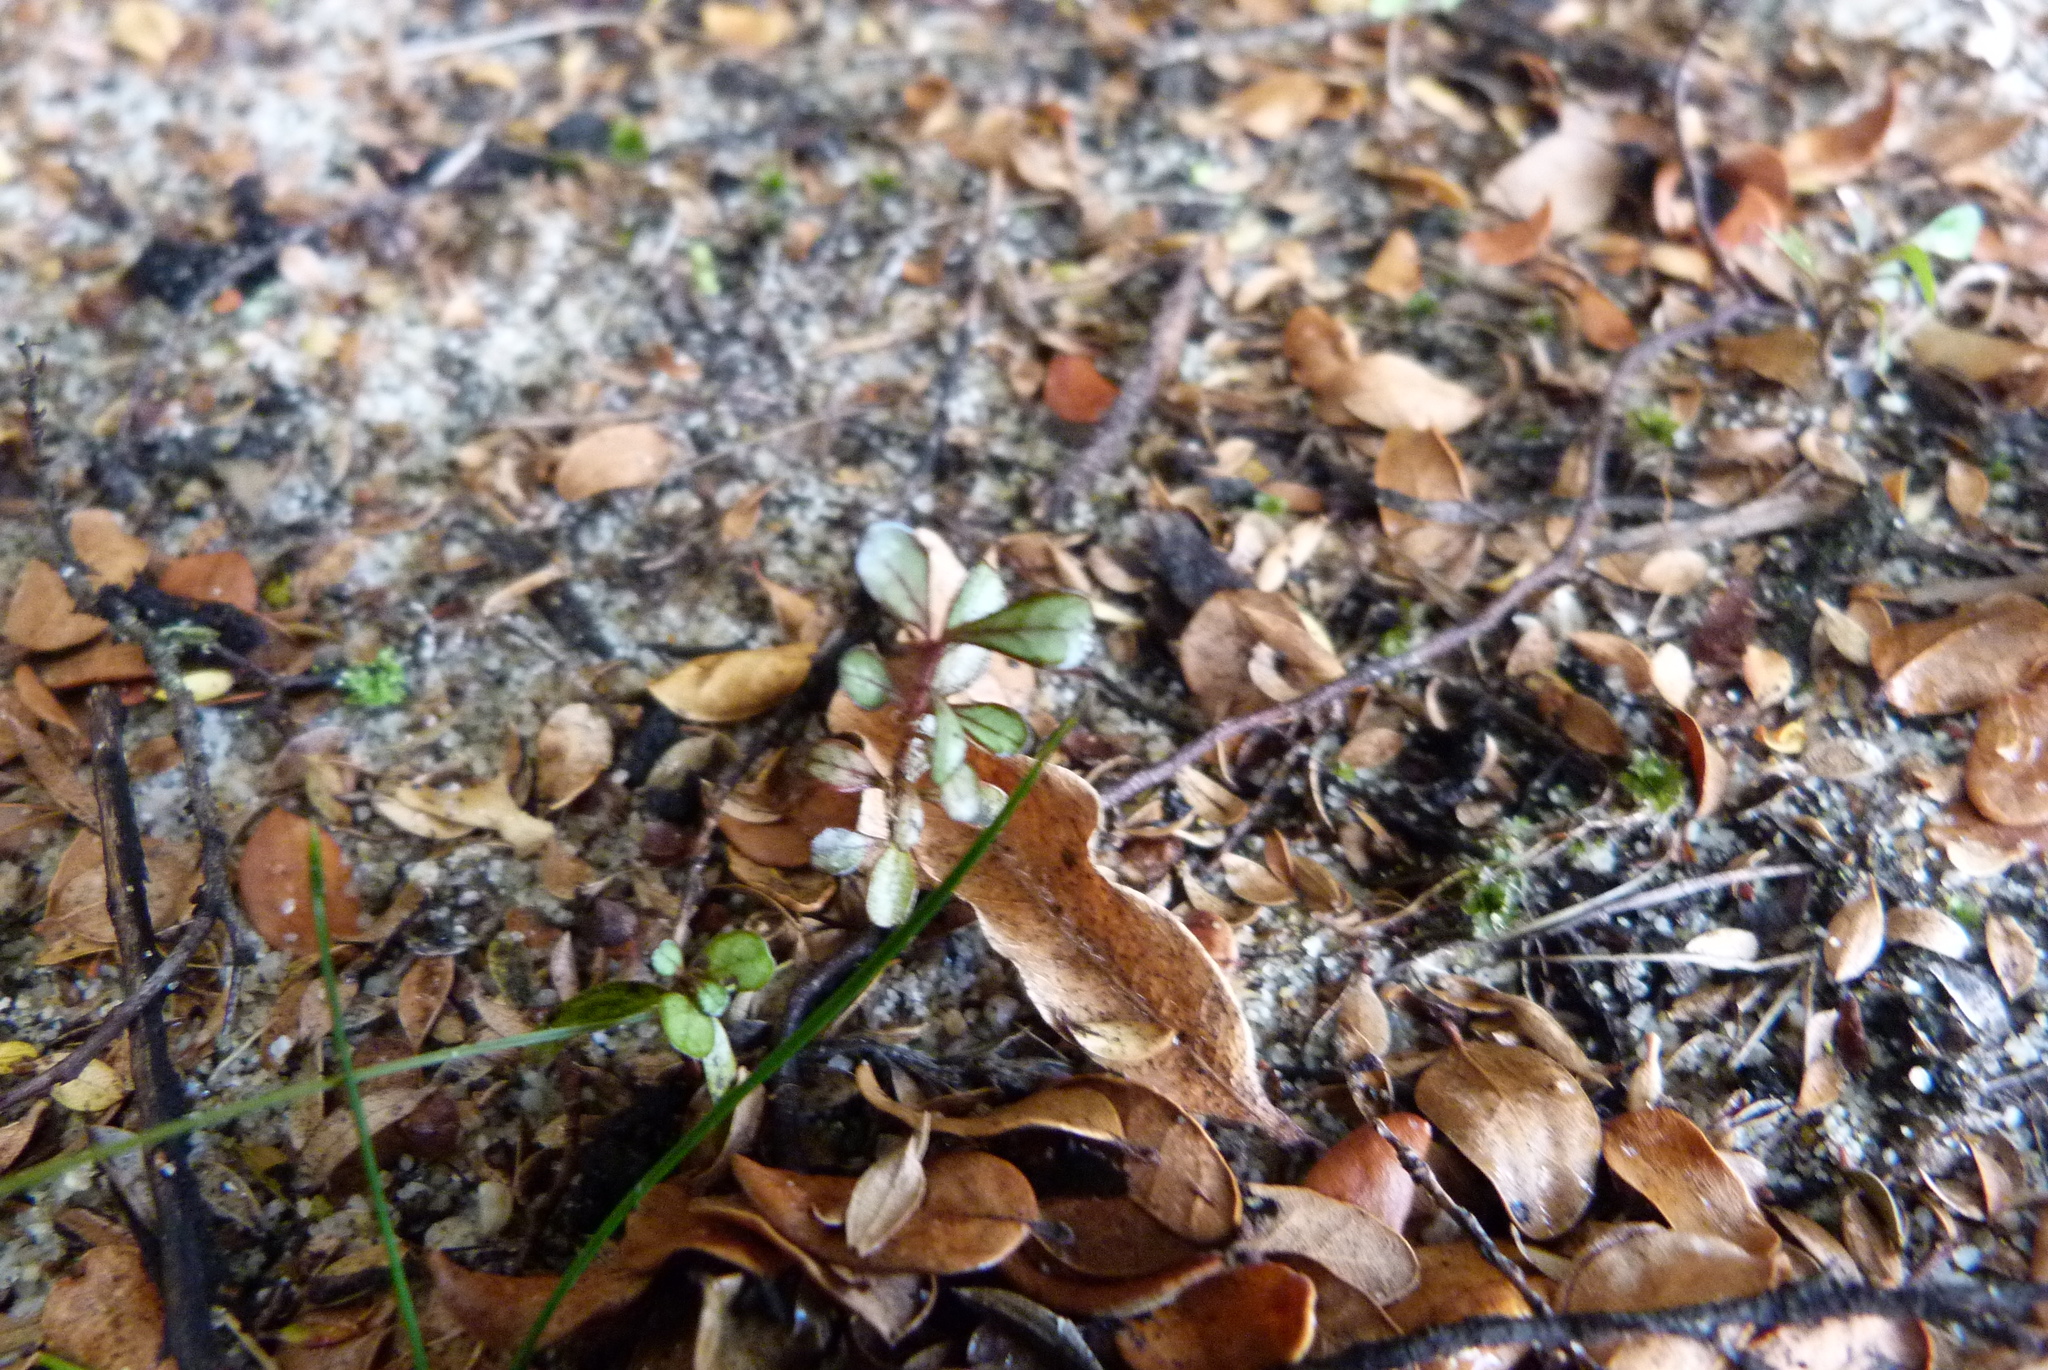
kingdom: Plantae
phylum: Tracheophyta
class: Magnoliopsida
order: Myrtales
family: Myrtaceae
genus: Lophomyrtus
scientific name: Lophomyrtus obcordata
